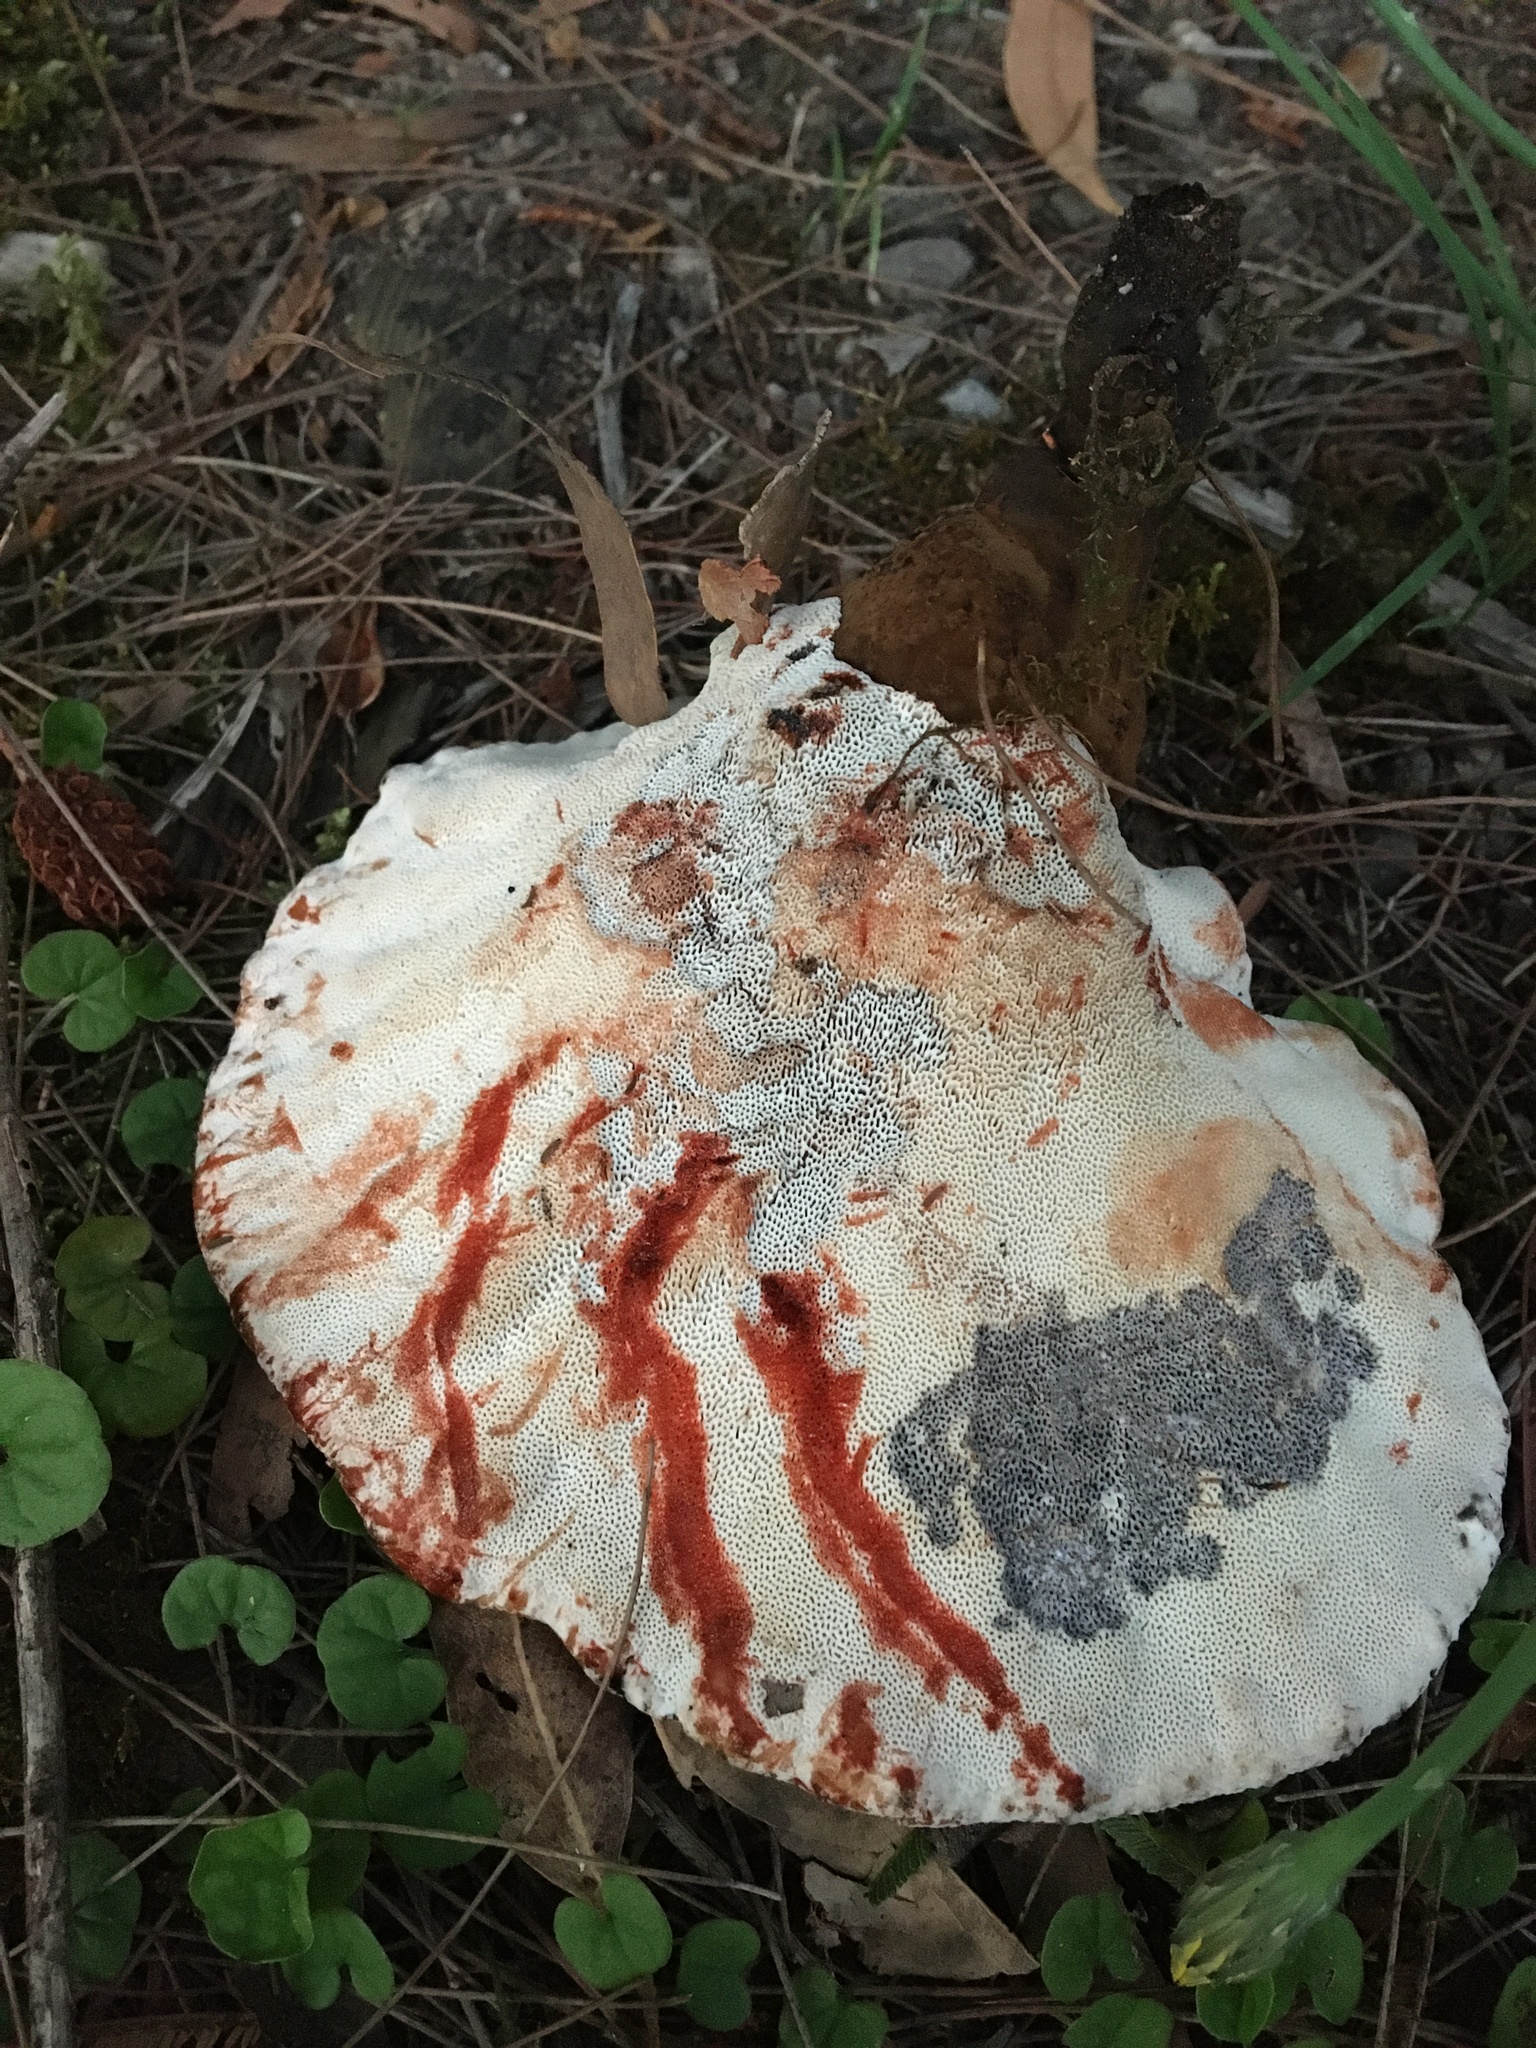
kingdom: Fungi
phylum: Basidiomycota
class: Agaricomycetes
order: Polyporales
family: Ganodermataceae
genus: Sanguinoderma
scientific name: Sanguinoderma rude
